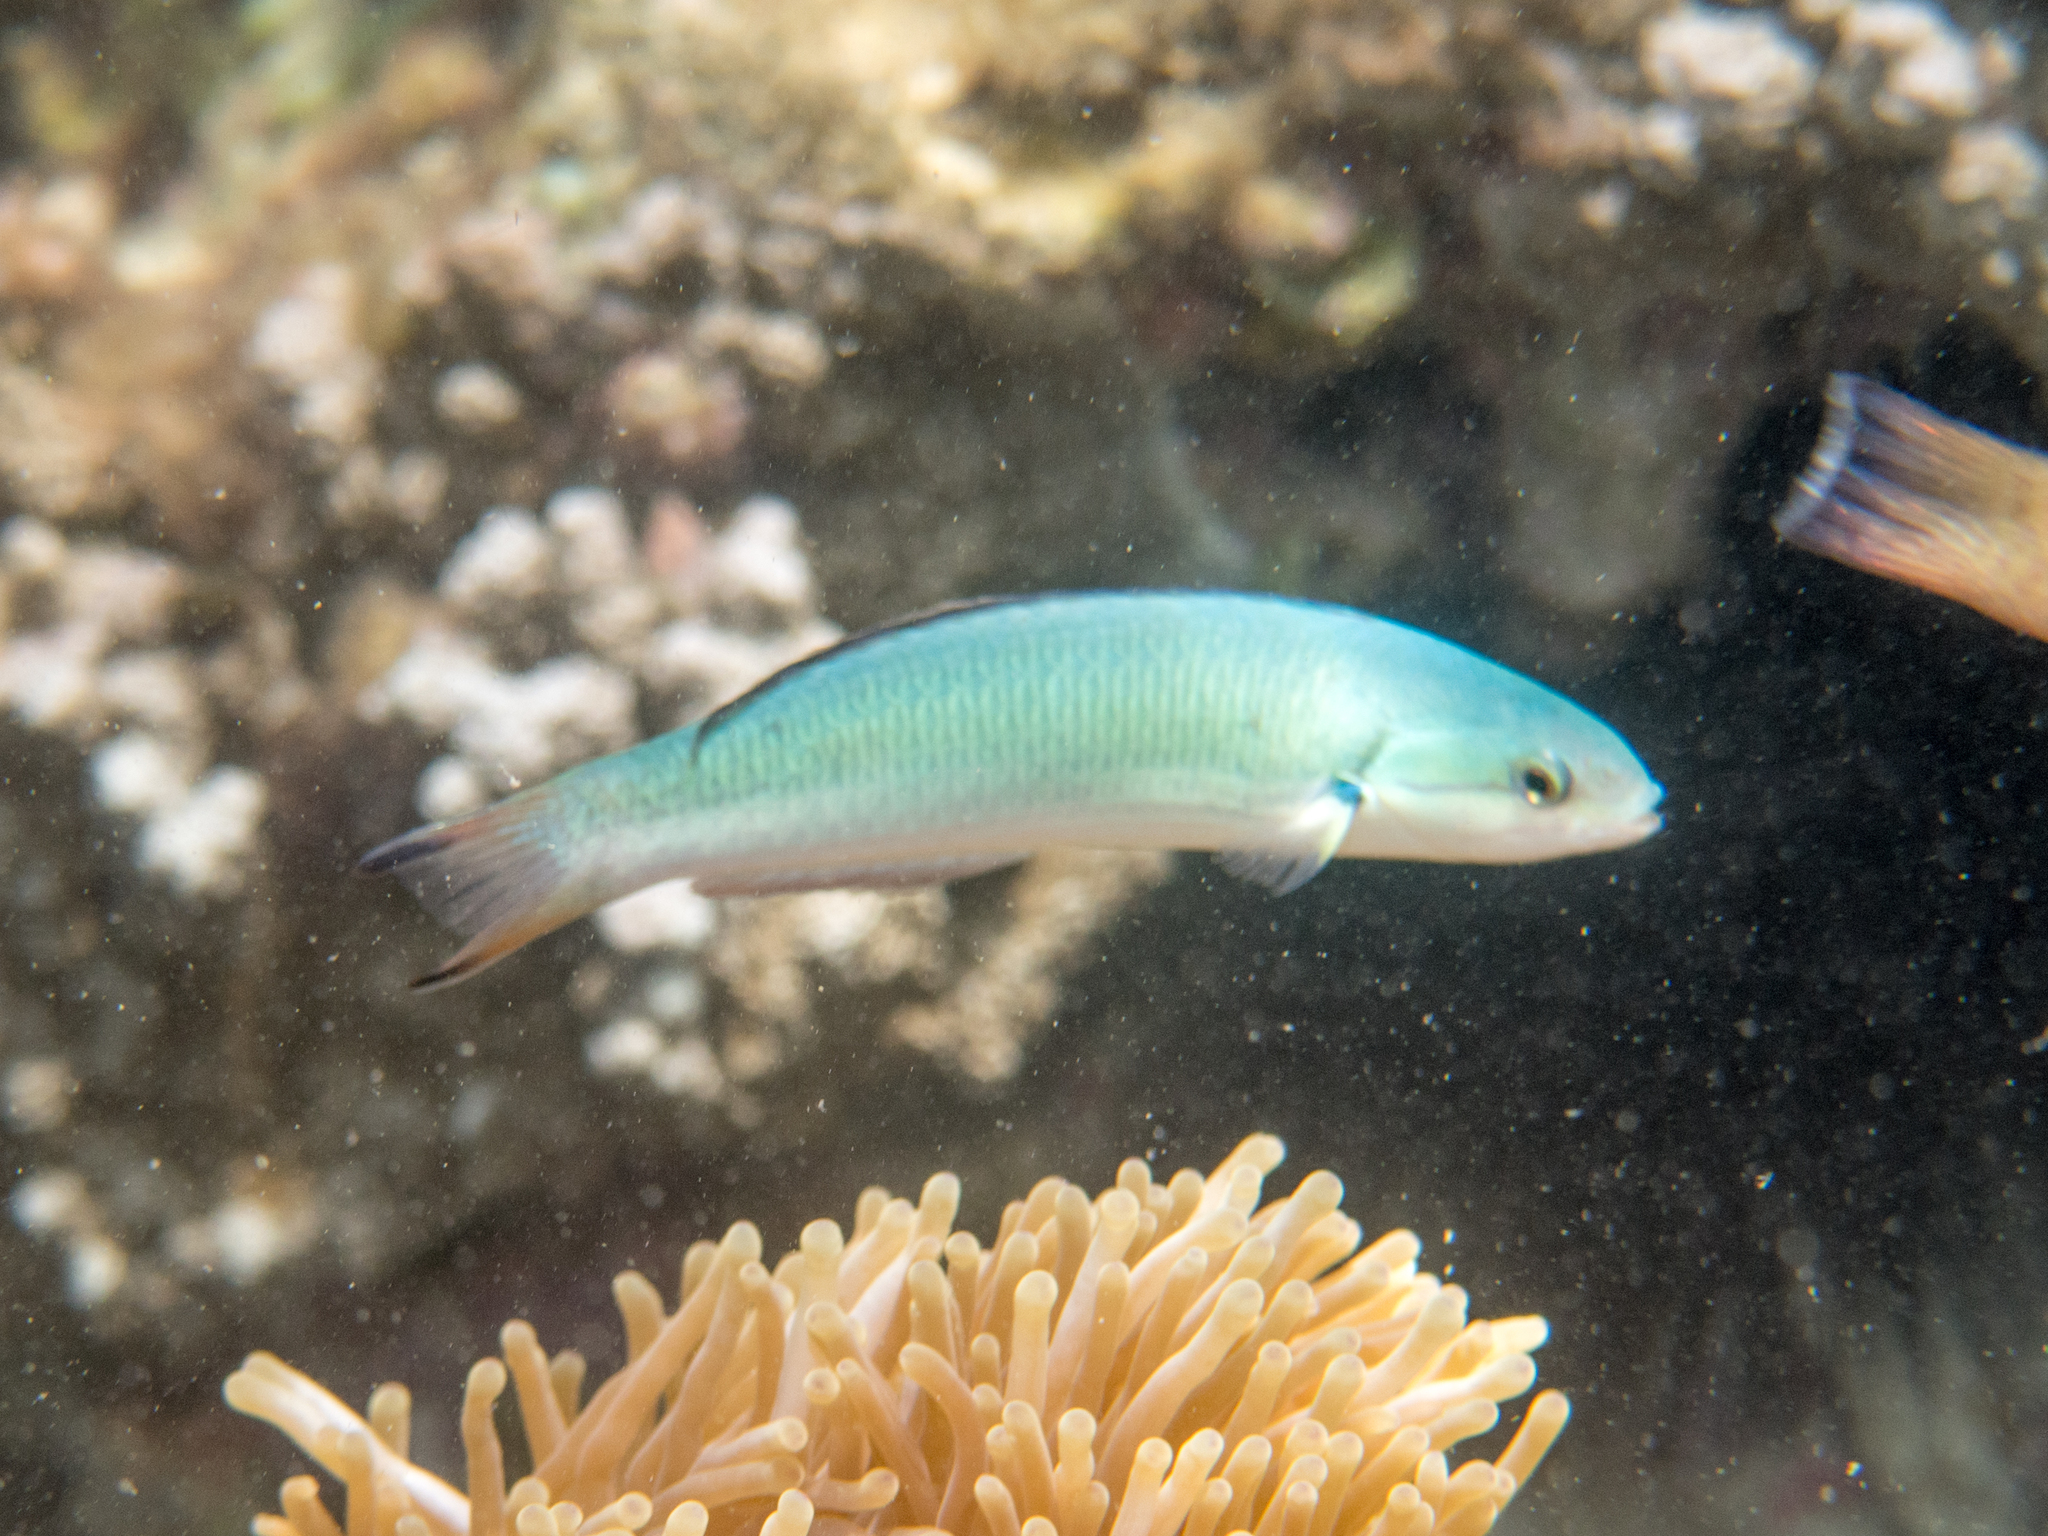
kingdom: Animalia
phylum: Chordata
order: Perciformes
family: Labridae
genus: Thalassoma
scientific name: Thalassoma amblycephalum
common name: Bluehead wrasse
